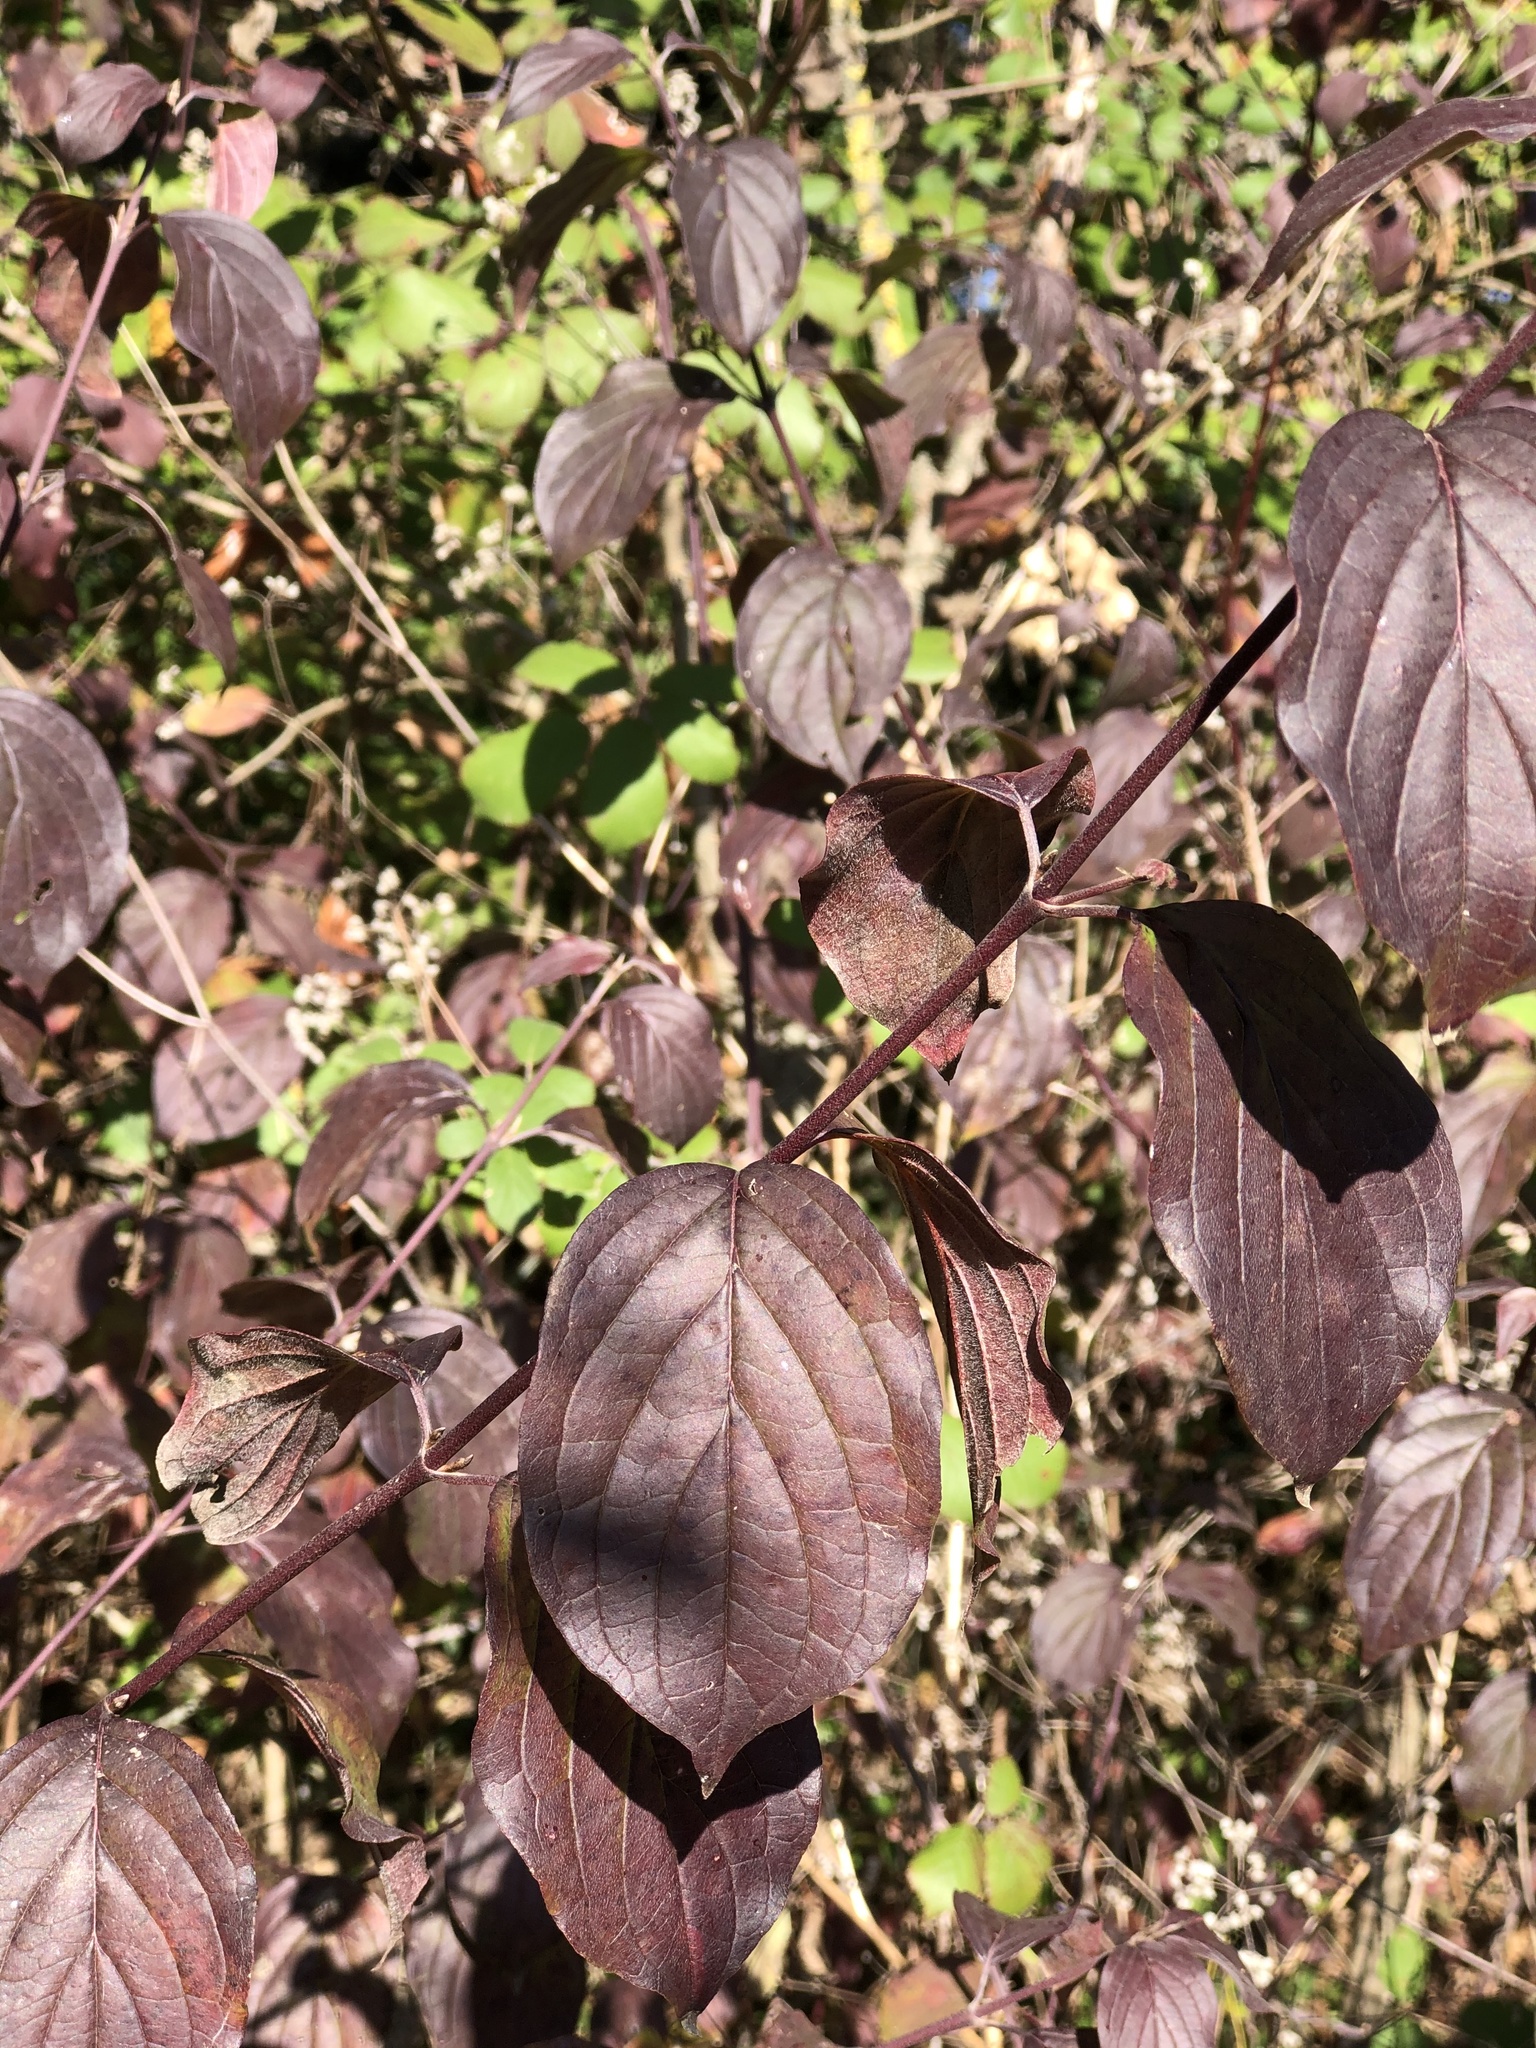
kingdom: Plantae
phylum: Tracheophyta
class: Magnoliopsida
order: Cornales
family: Cornaceae
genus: Cornus
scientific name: Cornus sanguinea
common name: Dogwood
